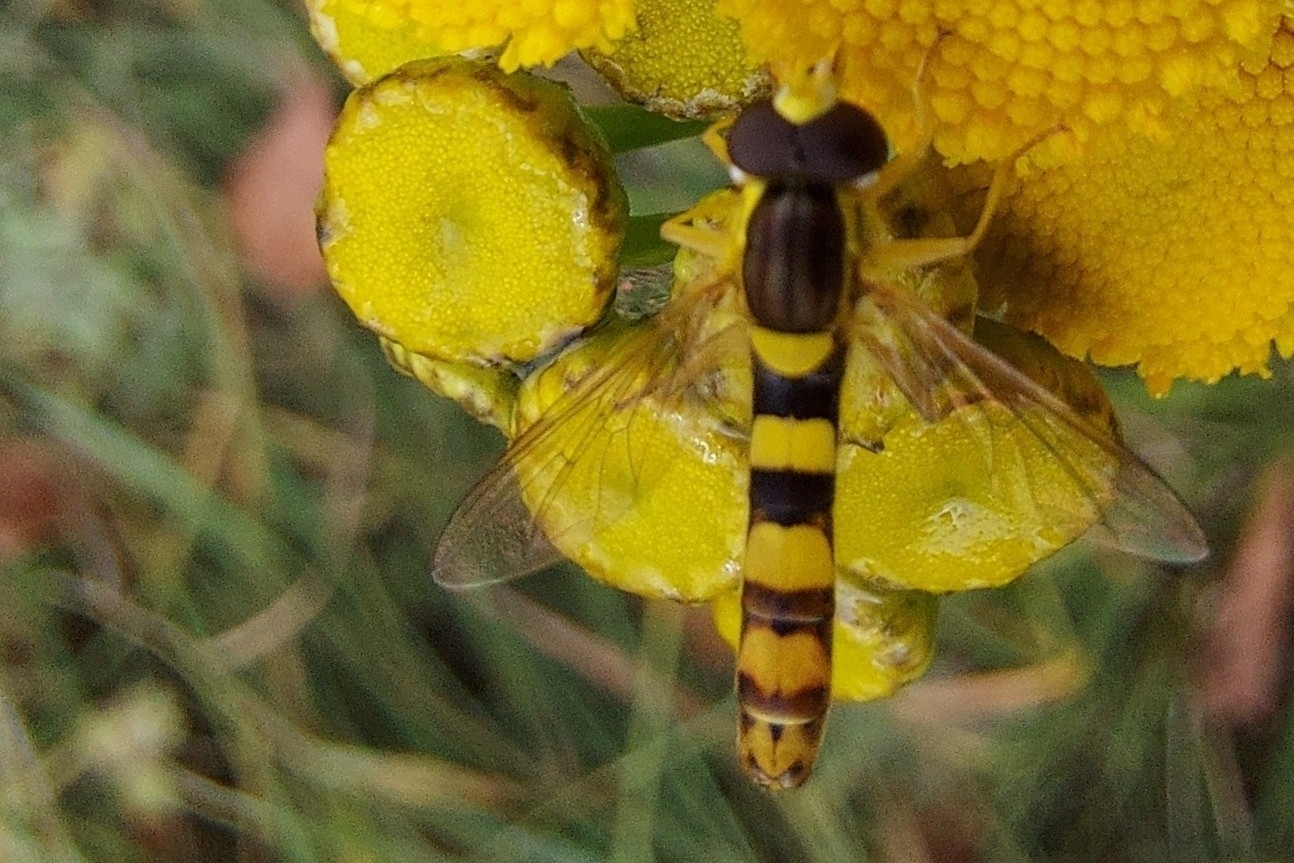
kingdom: Animalia
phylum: Arthropoda
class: Insecta
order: Diptera
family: Syrphidae
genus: Sphaerophoria
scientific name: Sphaerophoria scripta
